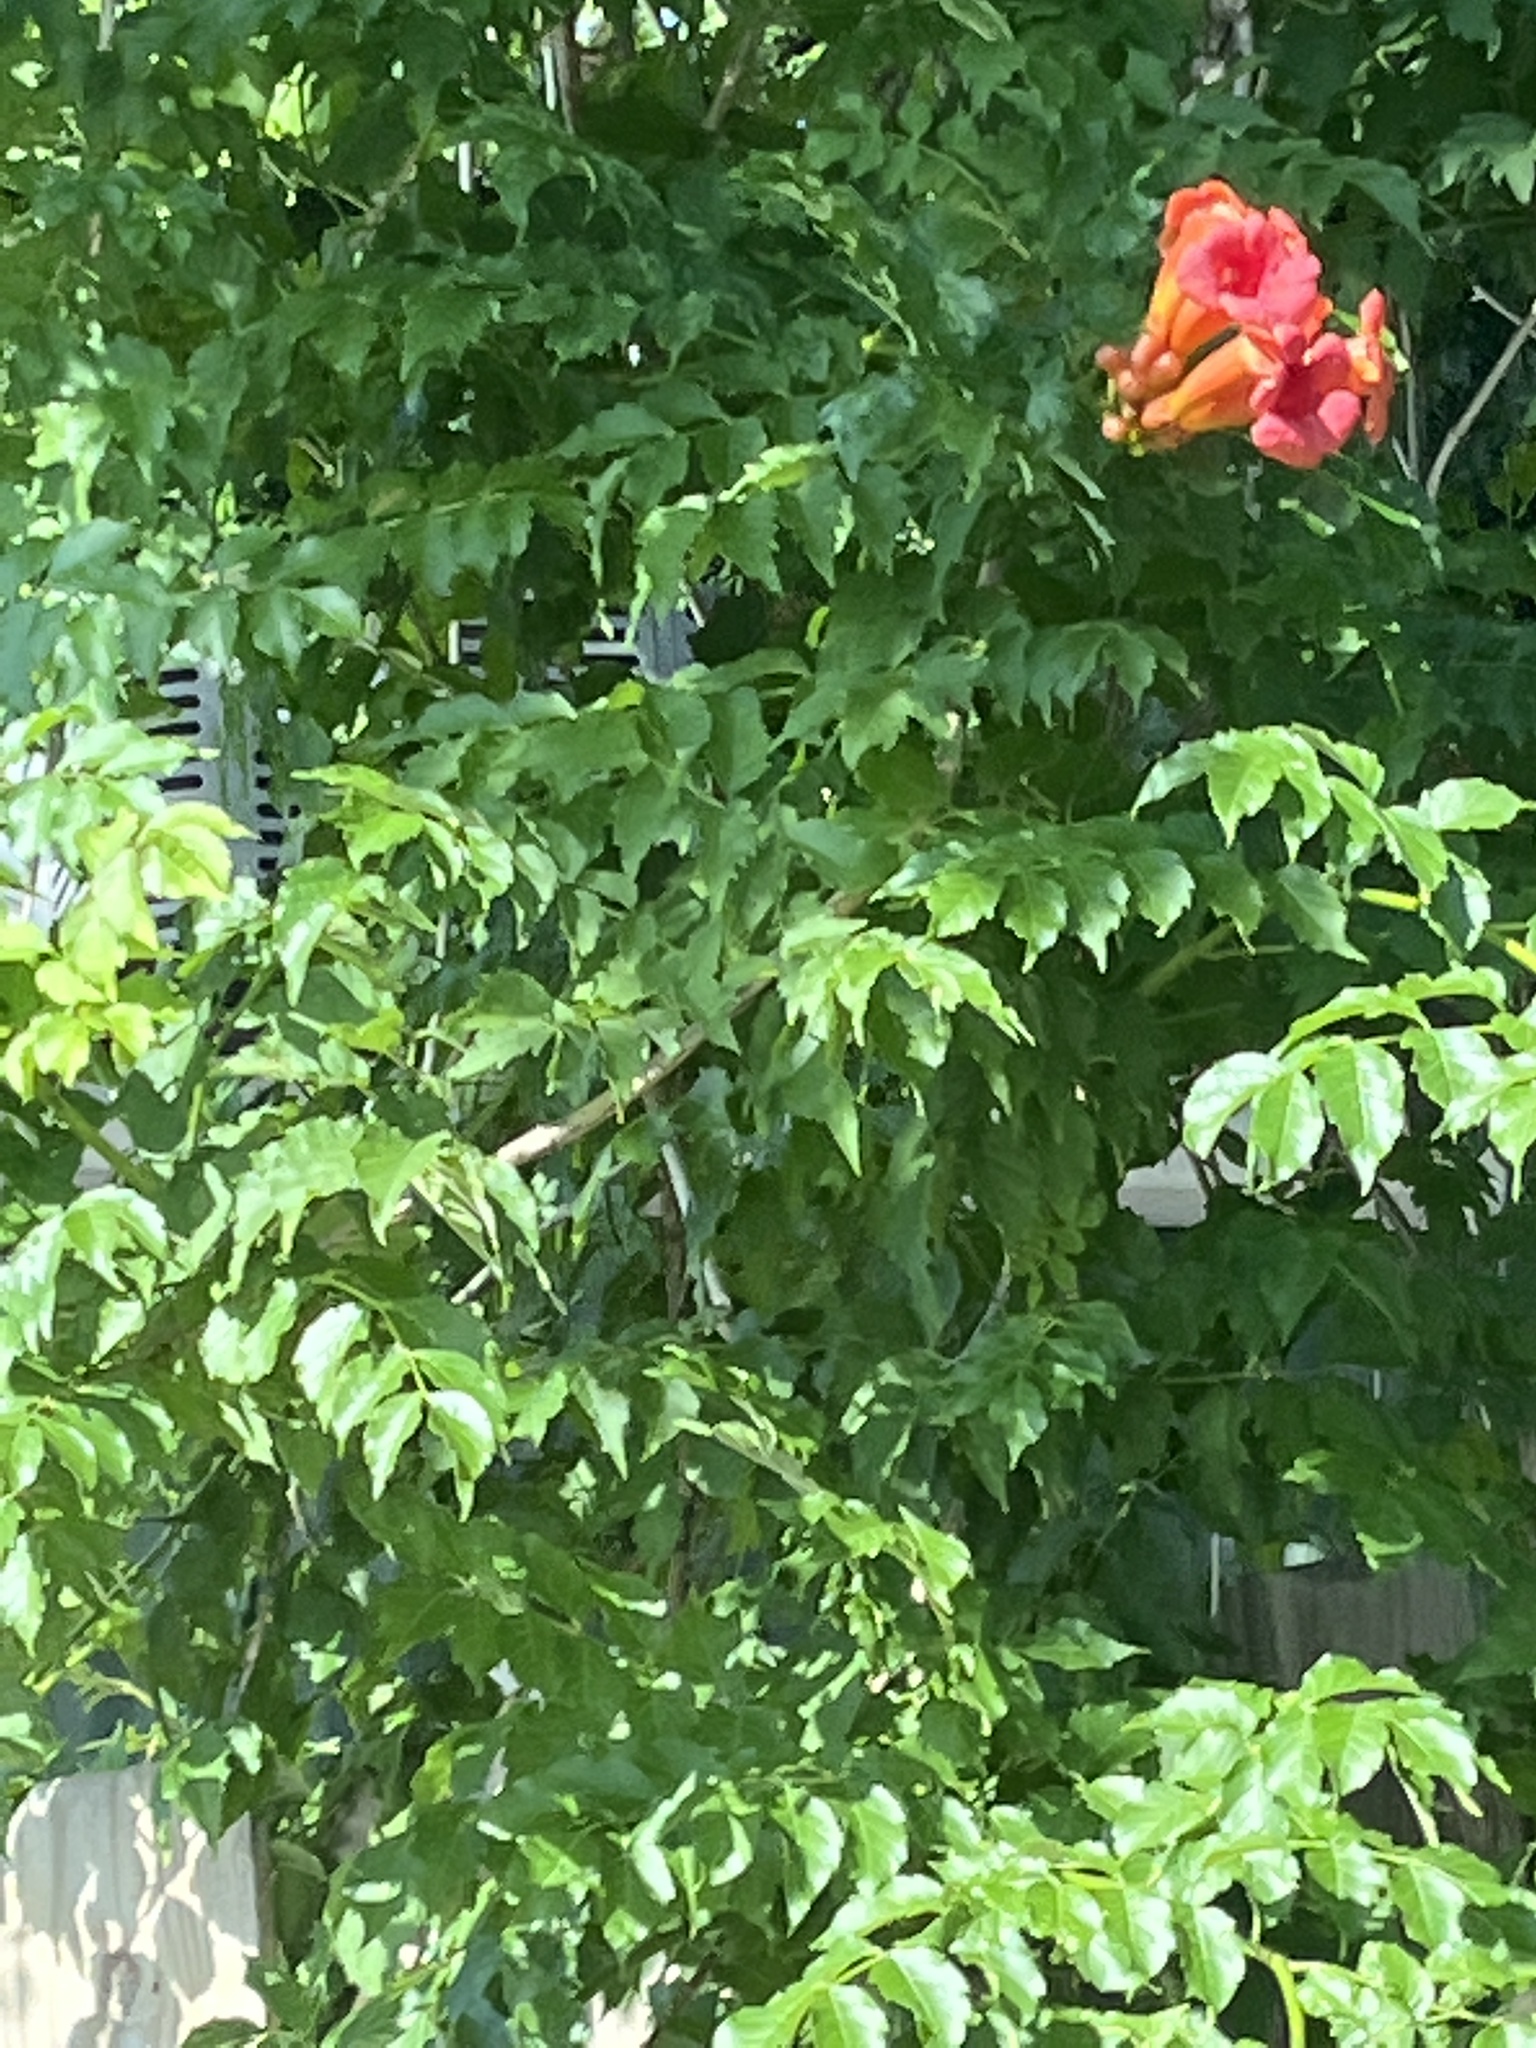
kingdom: Plantae
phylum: Tracheophyta
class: Magnoliopsida
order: Lamiales
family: Bignoniaceae
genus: Campsis
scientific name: Campsis radicans
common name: Trumpet-creeper
